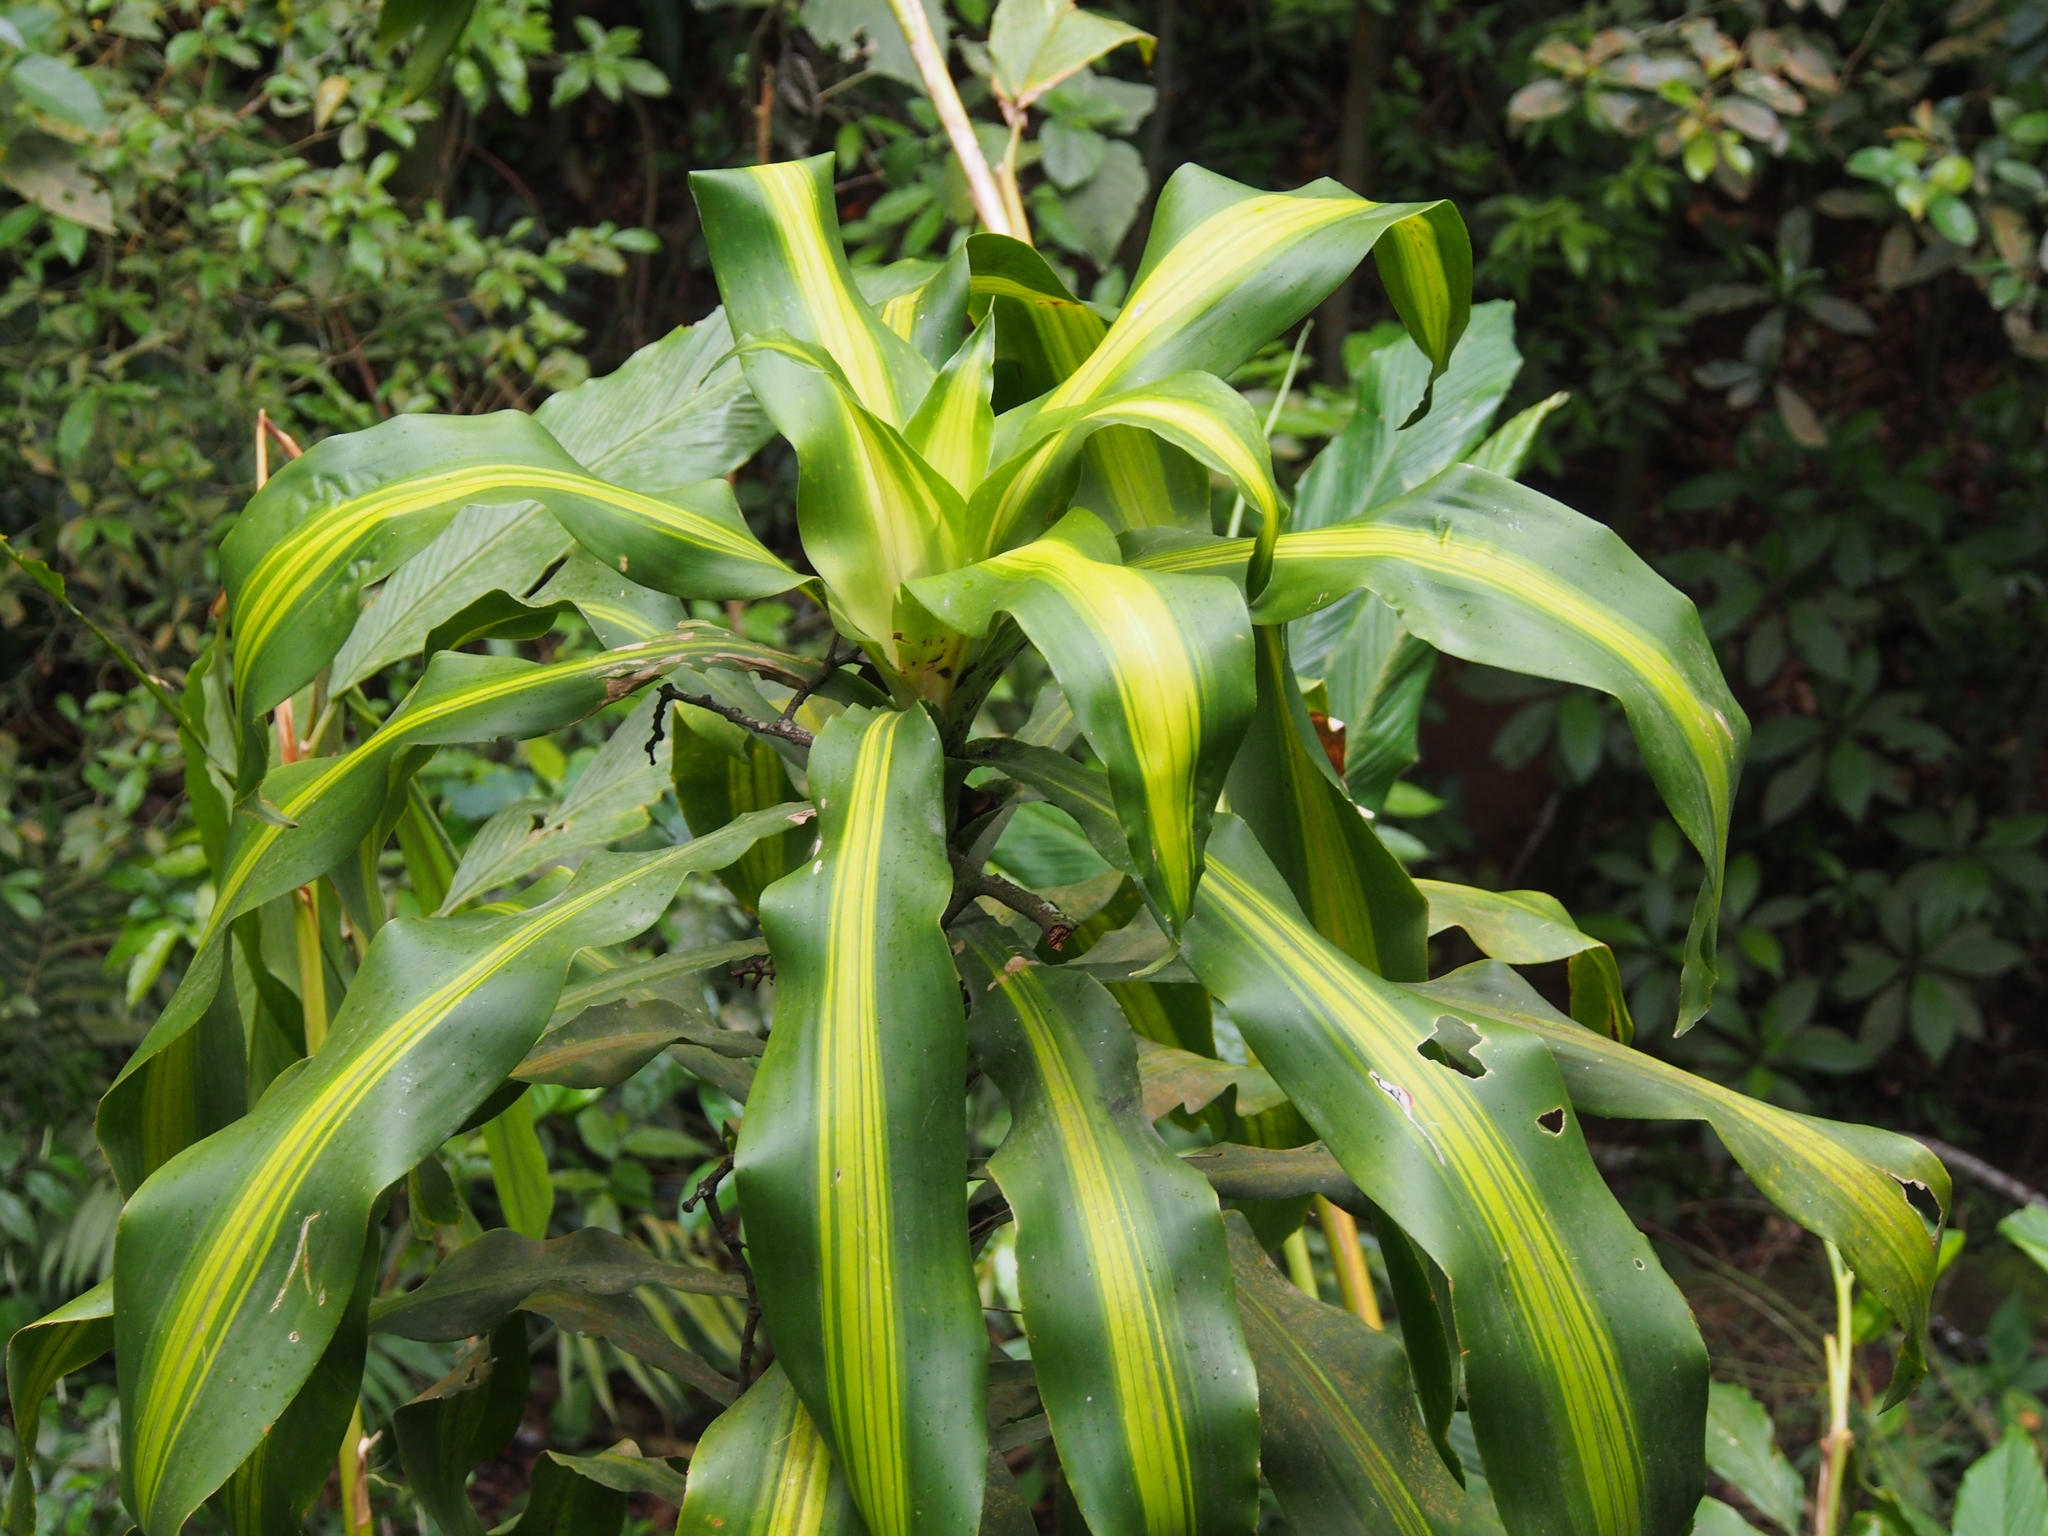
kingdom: Plantae
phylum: Tracheophyta
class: Liliopsida
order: Asparagales
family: Asparagaceae
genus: Dracaena
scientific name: Dracaena fragrans
